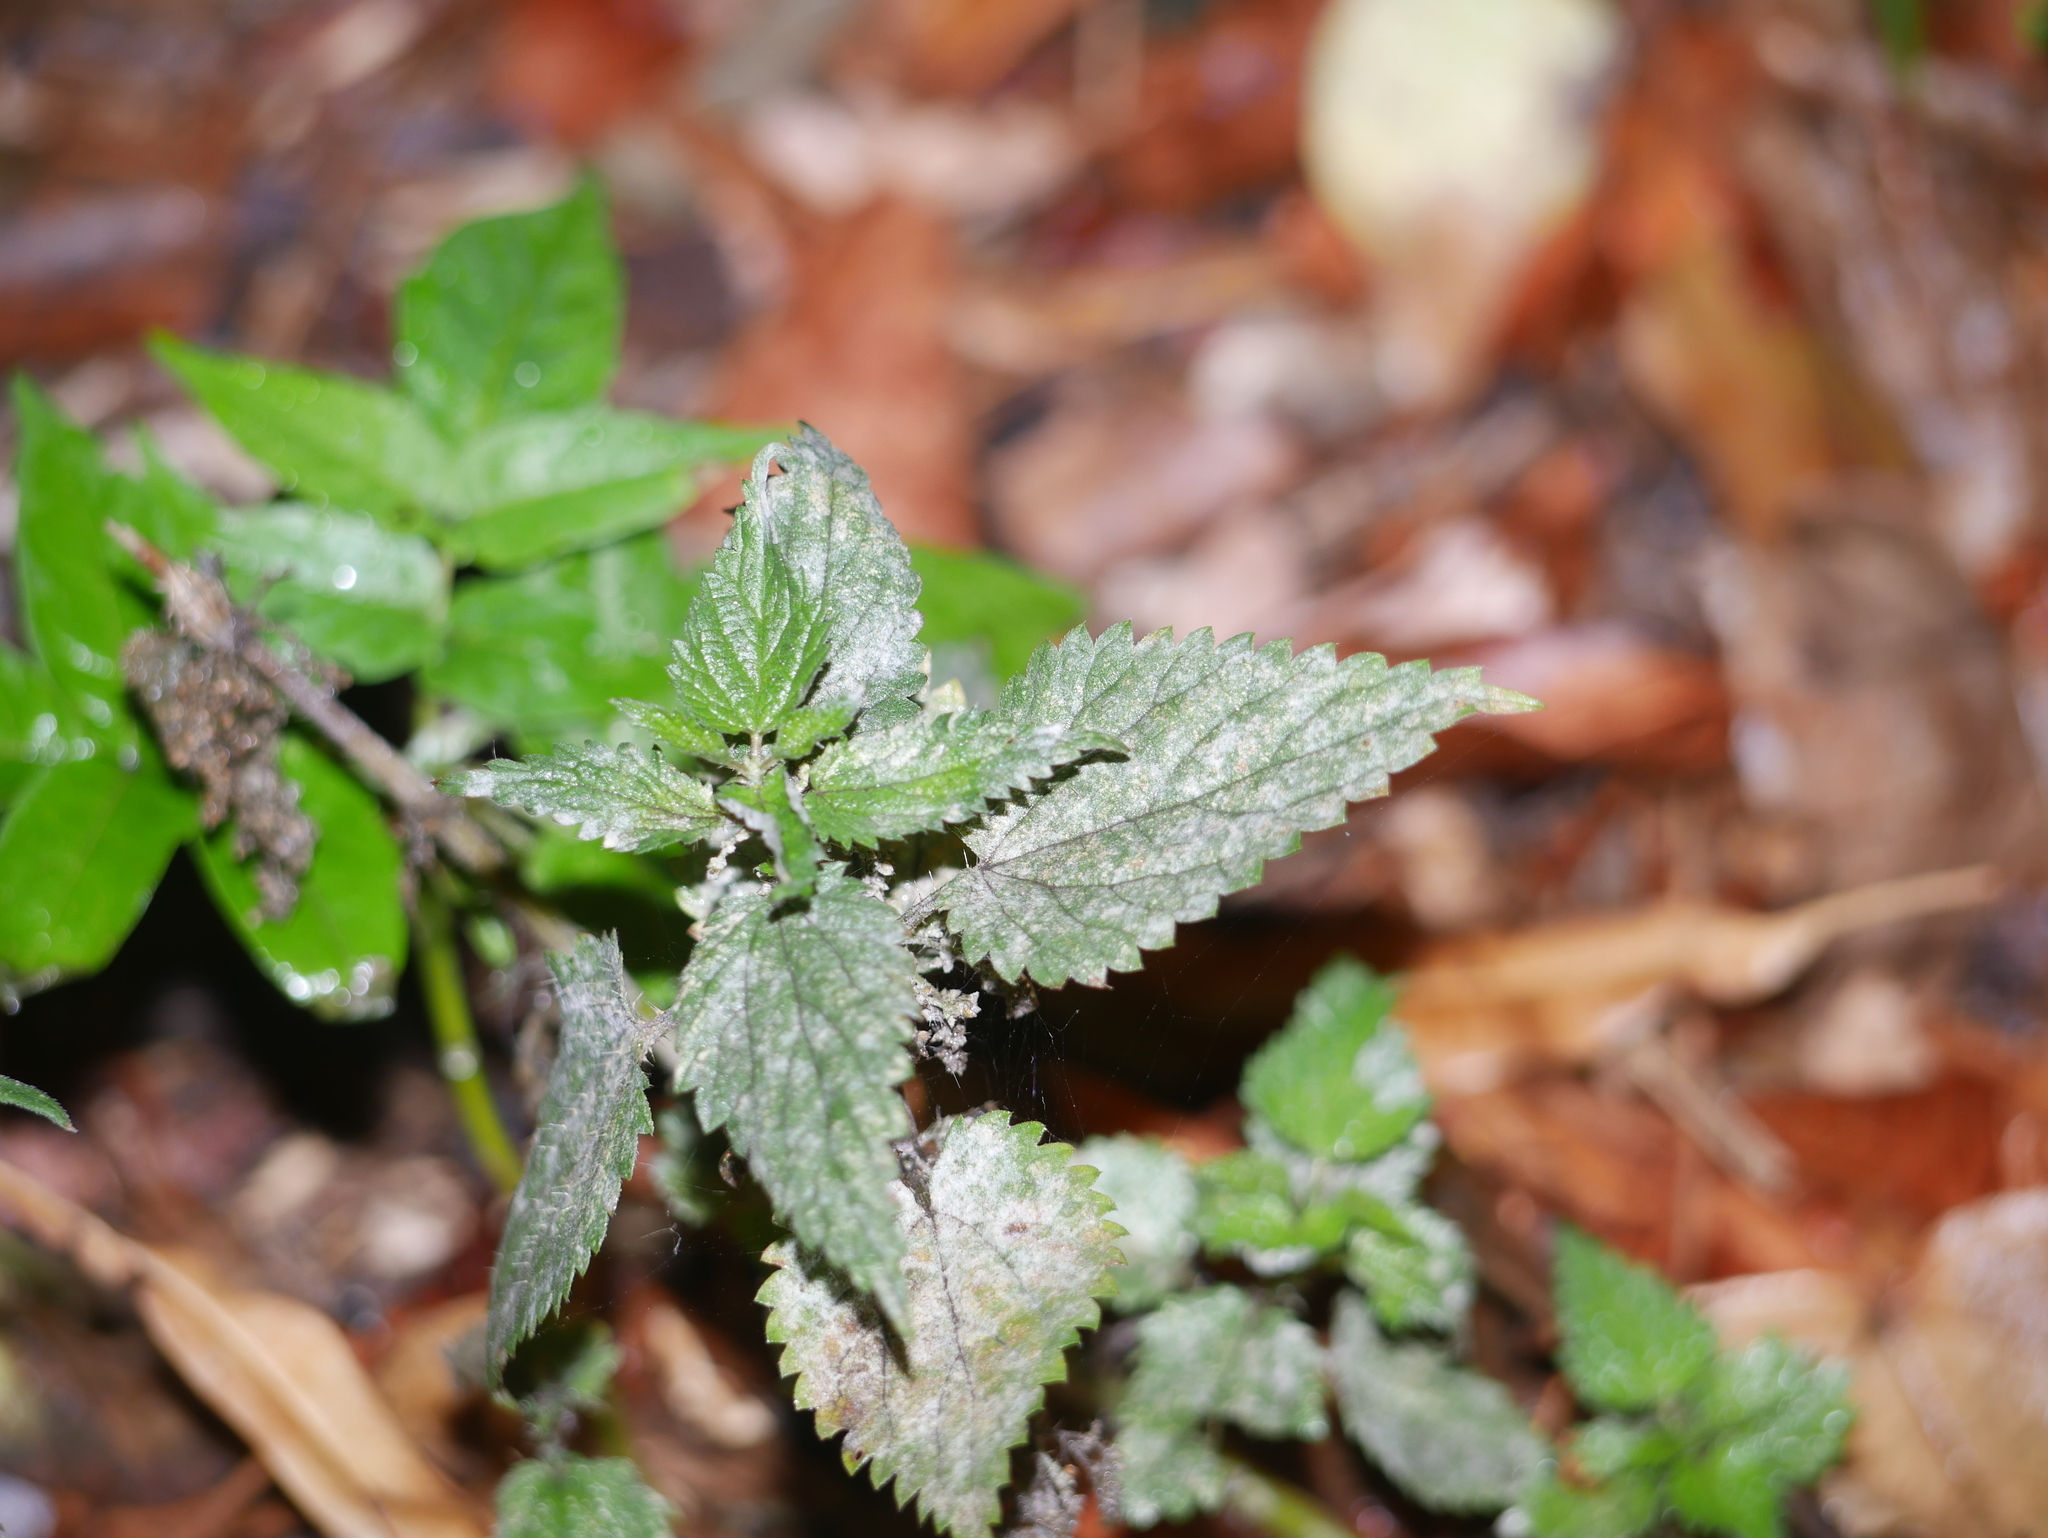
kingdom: Plantae
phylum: Tracheophyta
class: Magnoliopsida
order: Rosales
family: Urticaceae
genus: Urtica
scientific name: Urtica dioica
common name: Common nettle
